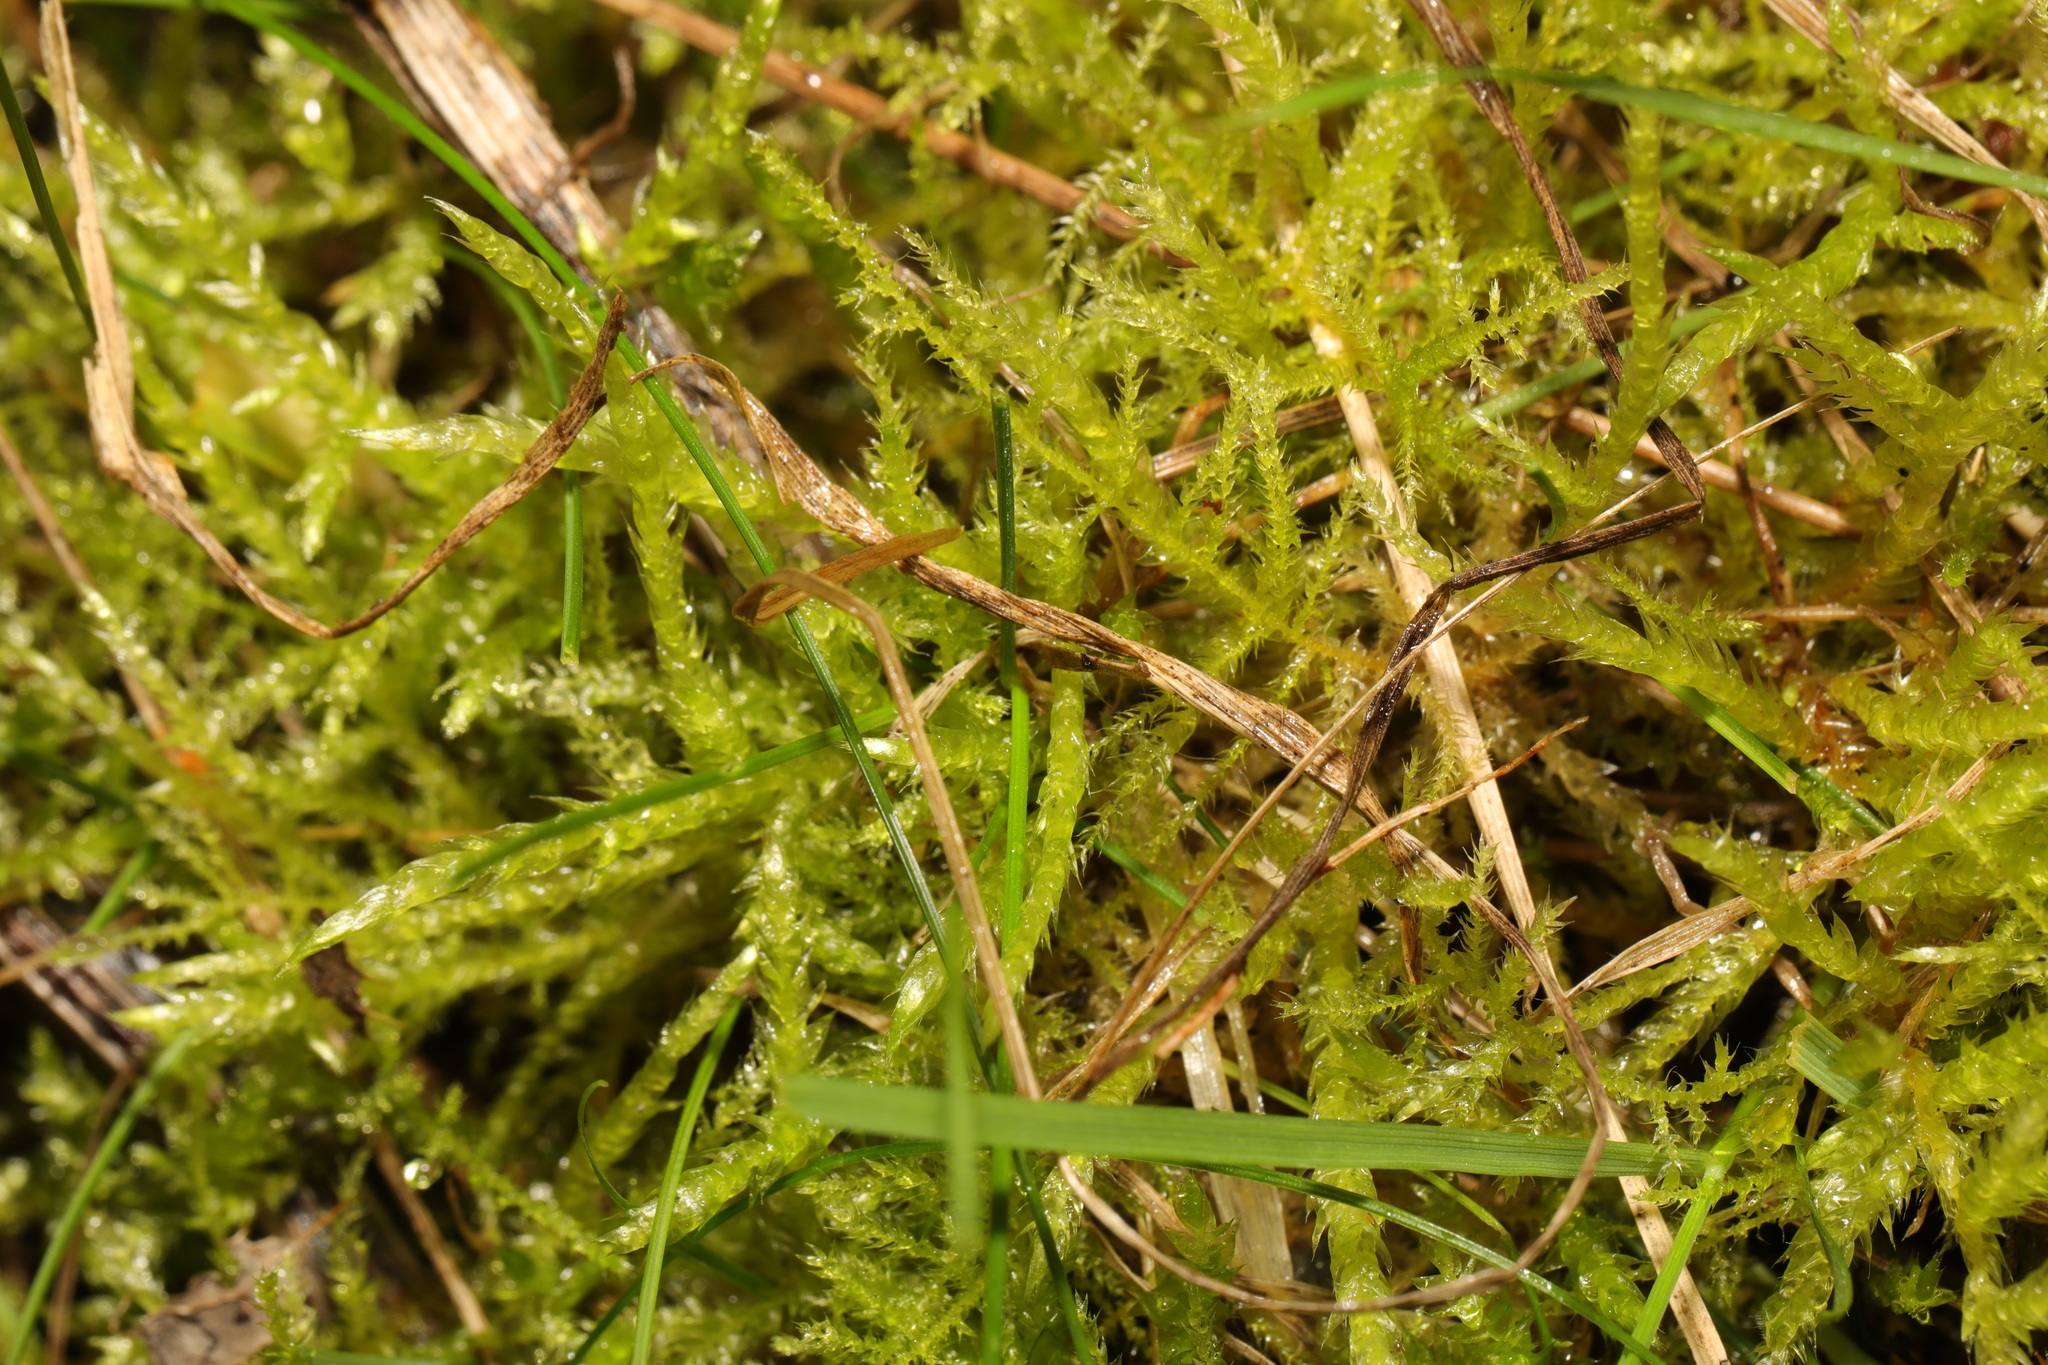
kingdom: Plantae
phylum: Bryophyta
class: Bryopsida
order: Hypnales
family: Brachytheciaceae
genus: Kindbergia
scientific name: Kindbergia praelonga
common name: Slender beaked moss
